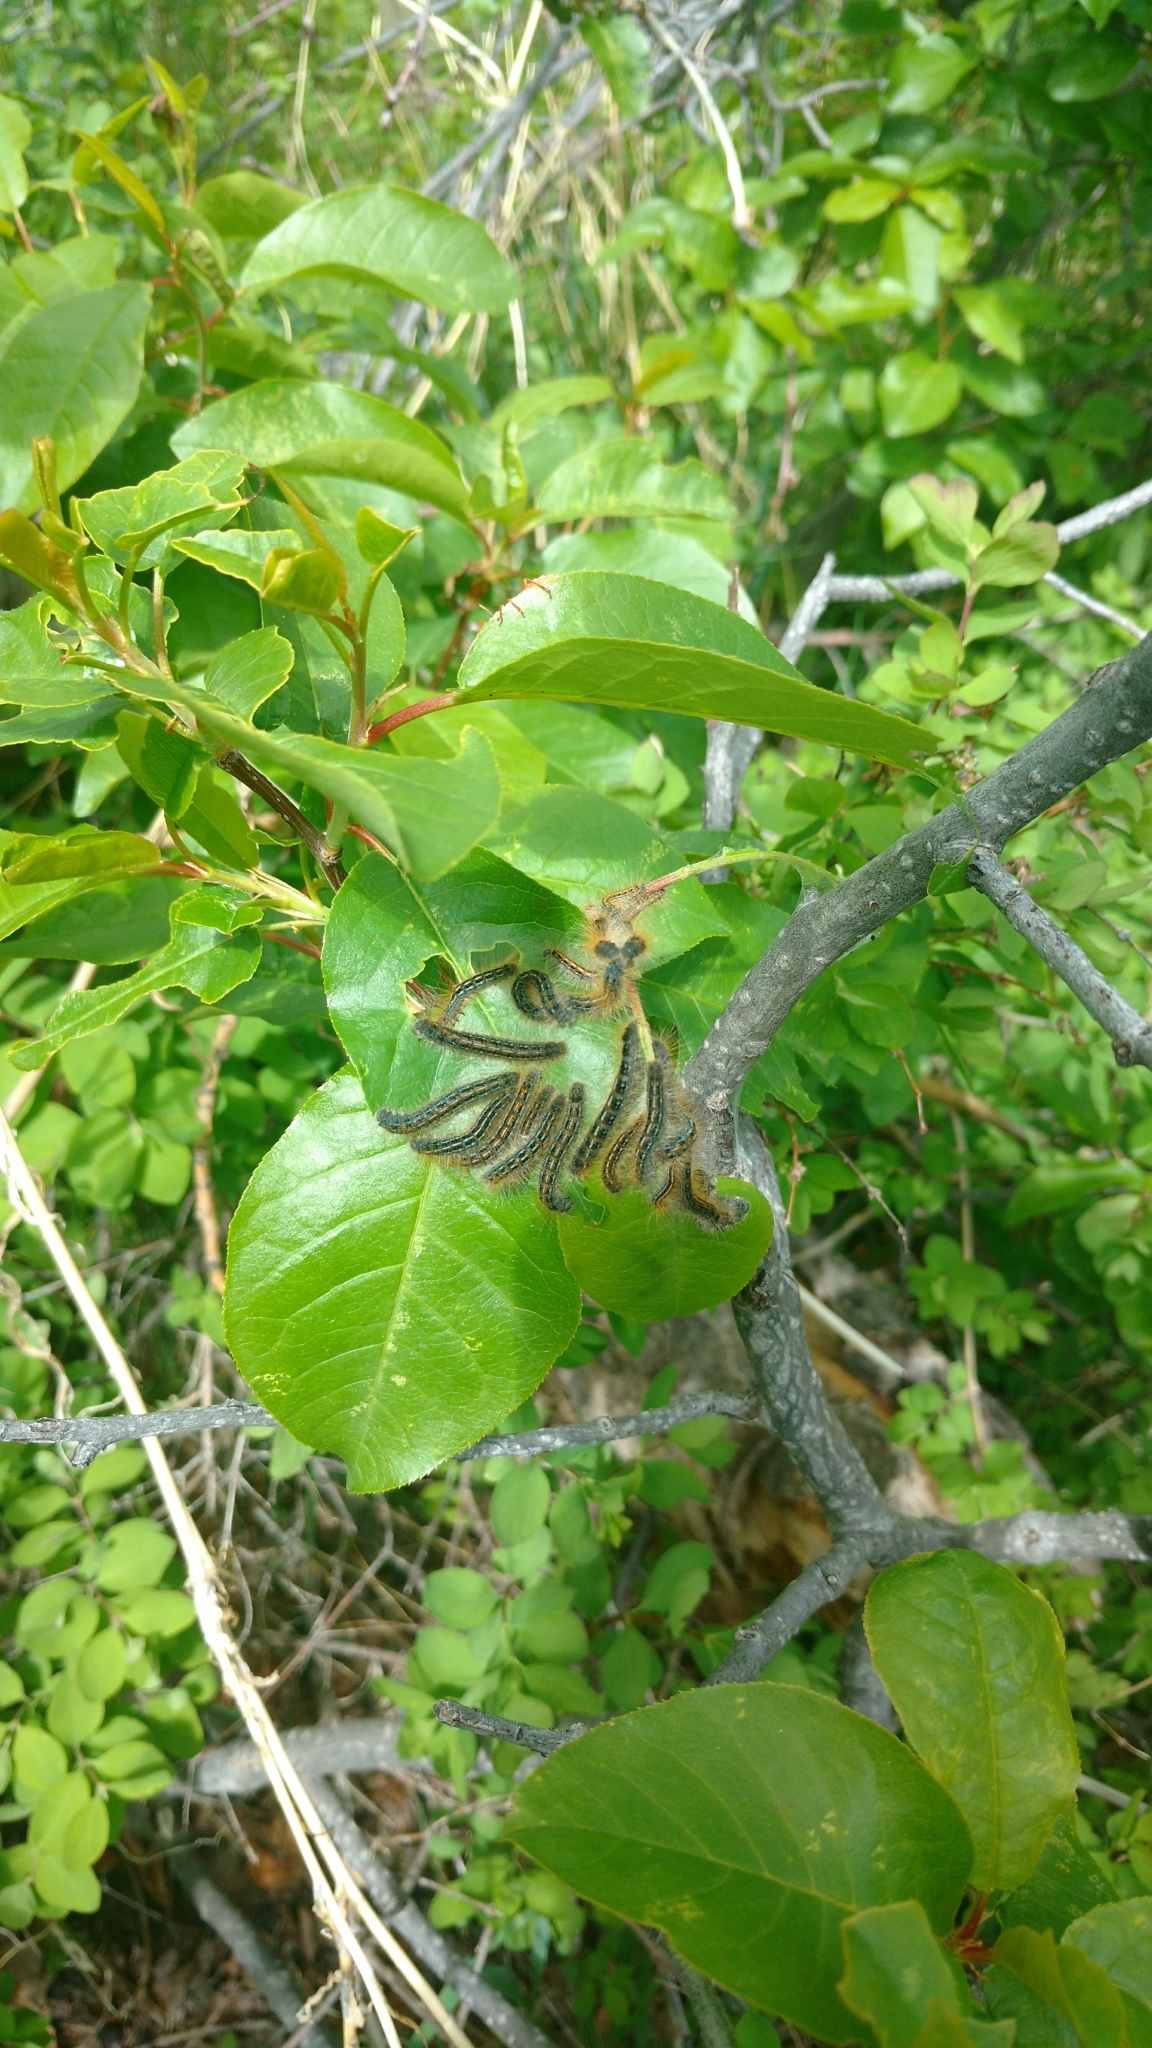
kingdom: Animalia
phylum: Arthropoda
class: Insecta
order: Lepidoptera
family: Lasiocampidae
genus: Malacosoma
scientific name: Malacosoma californica
